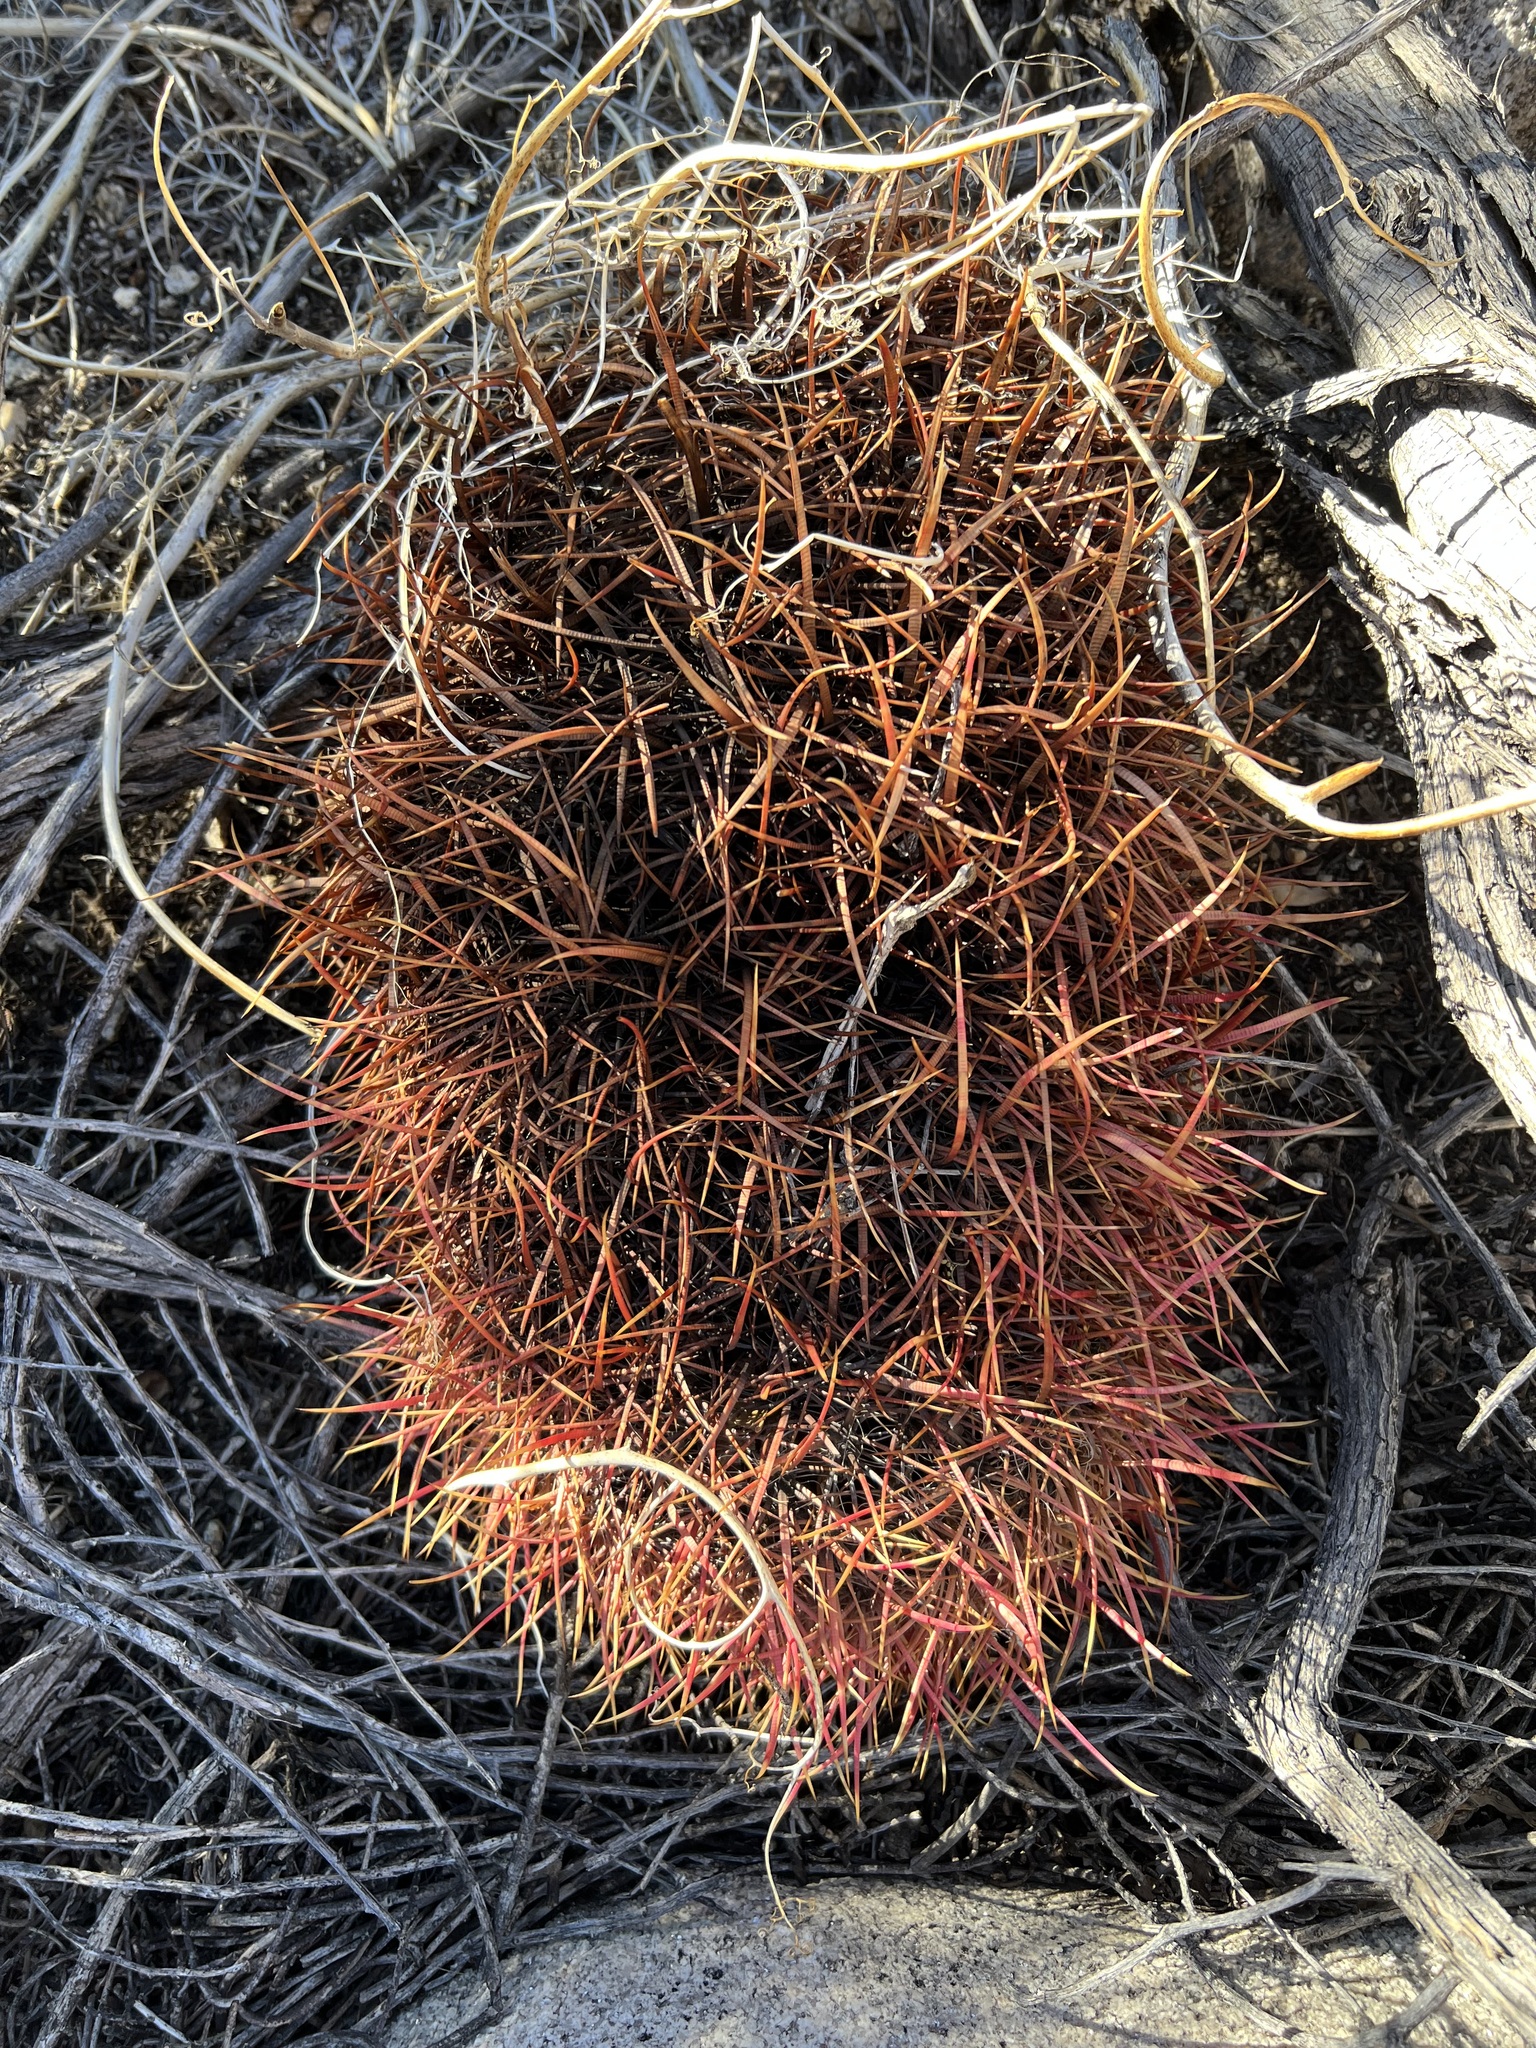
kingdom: Plantae
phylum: Tracheophyta
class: Magnoliopsida
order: Caryophyllales
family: Cactaceae
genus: Ferocactus
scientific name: Ferocactus cylindraceus
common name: California barrel cactus
